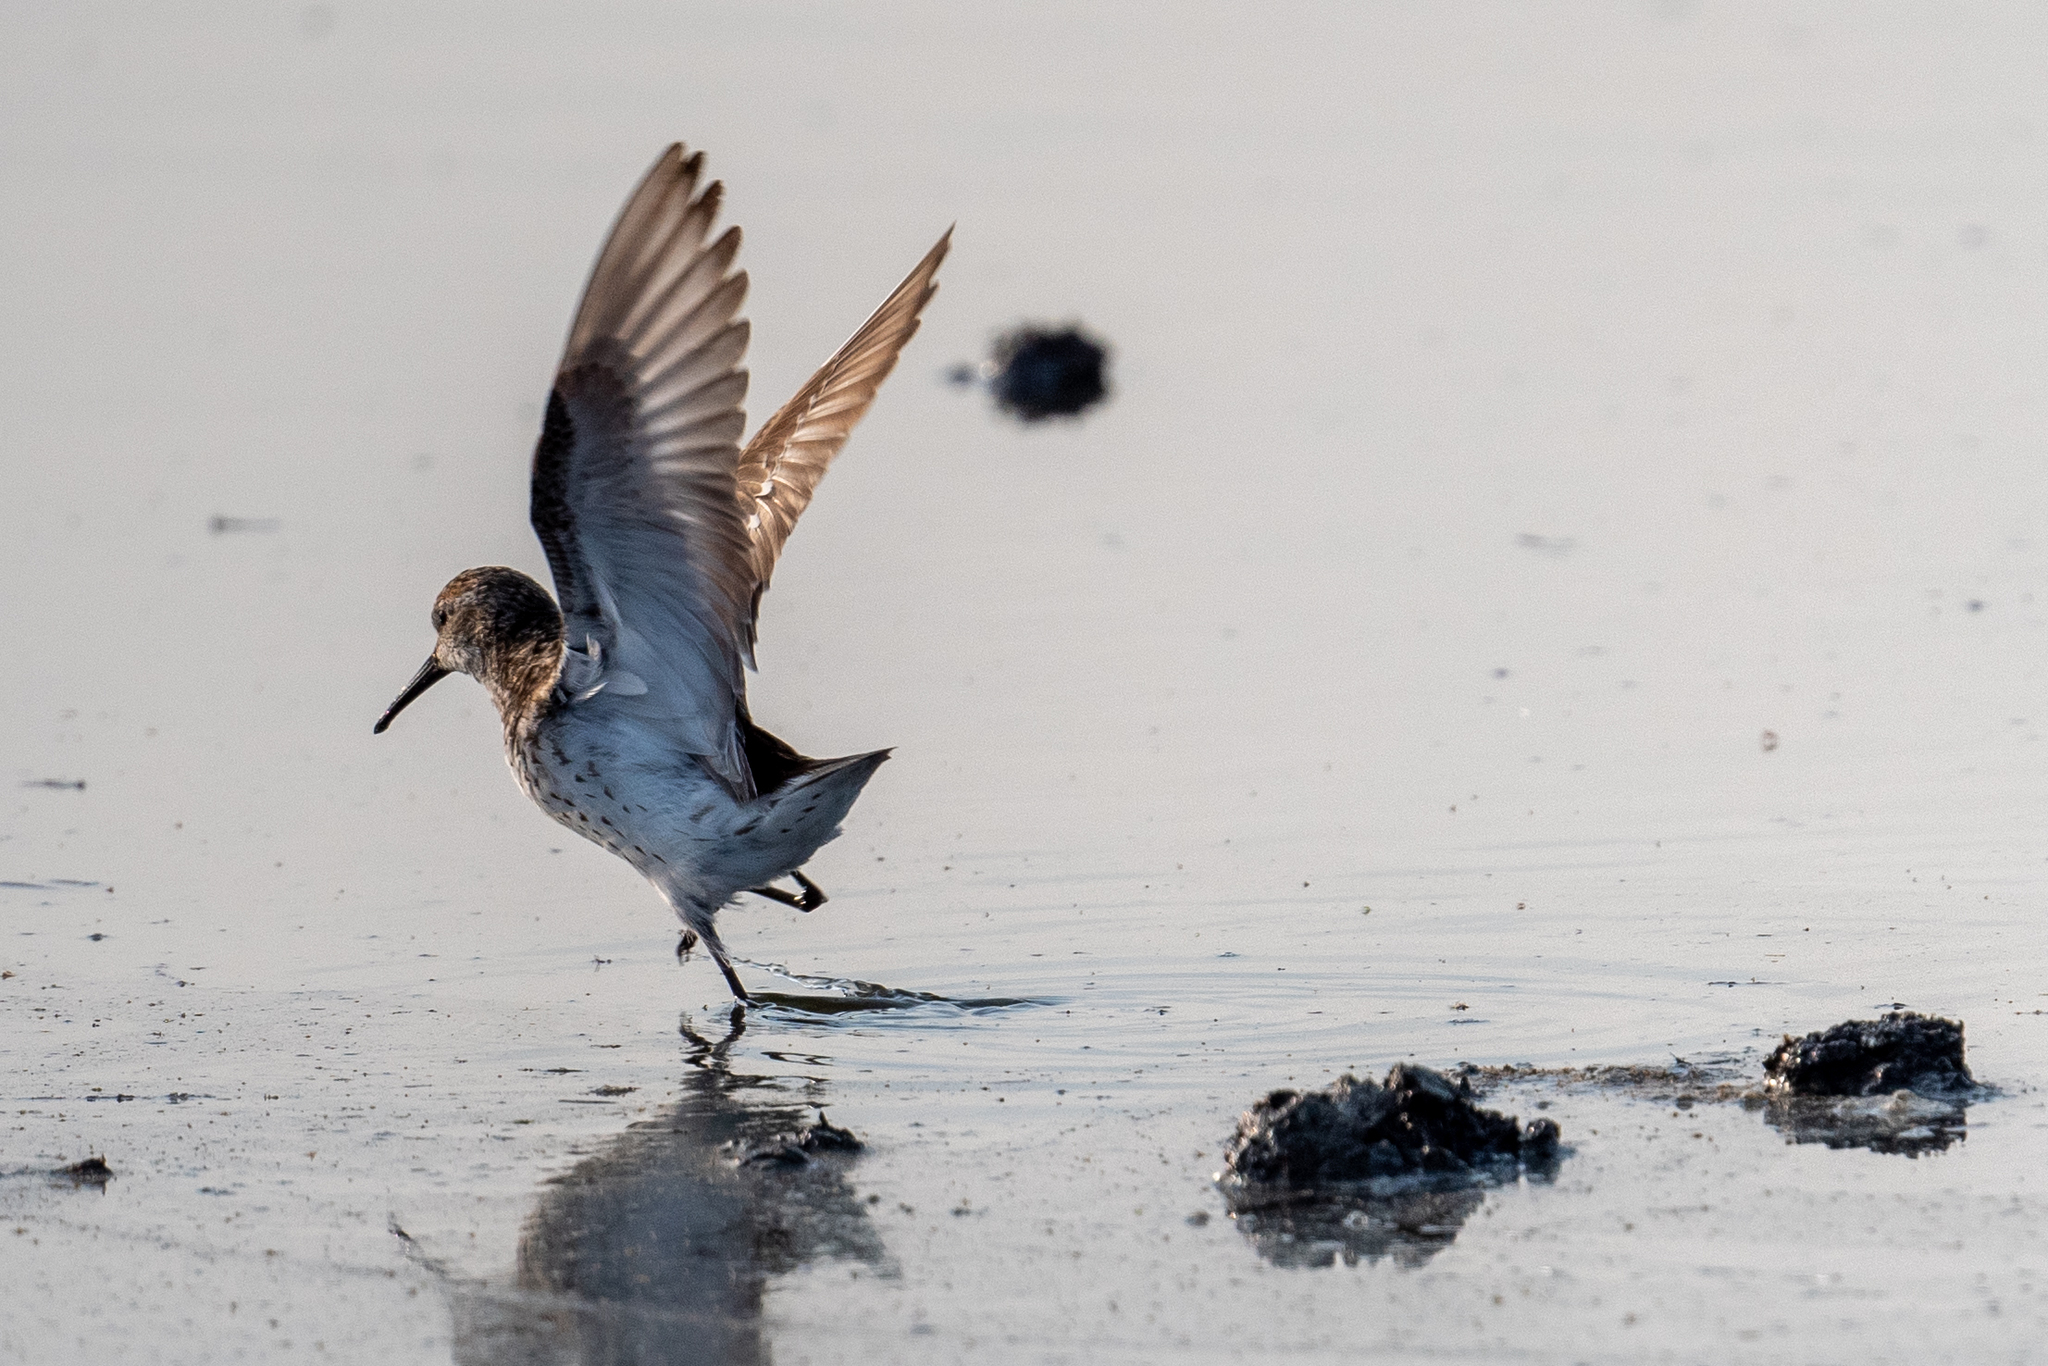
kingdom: Animalia
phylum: Chordata
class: Aves
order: Charadriiformes
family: Scolopacidae
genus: Calidris
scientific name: Calidris mauri
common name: Western sandpiper
